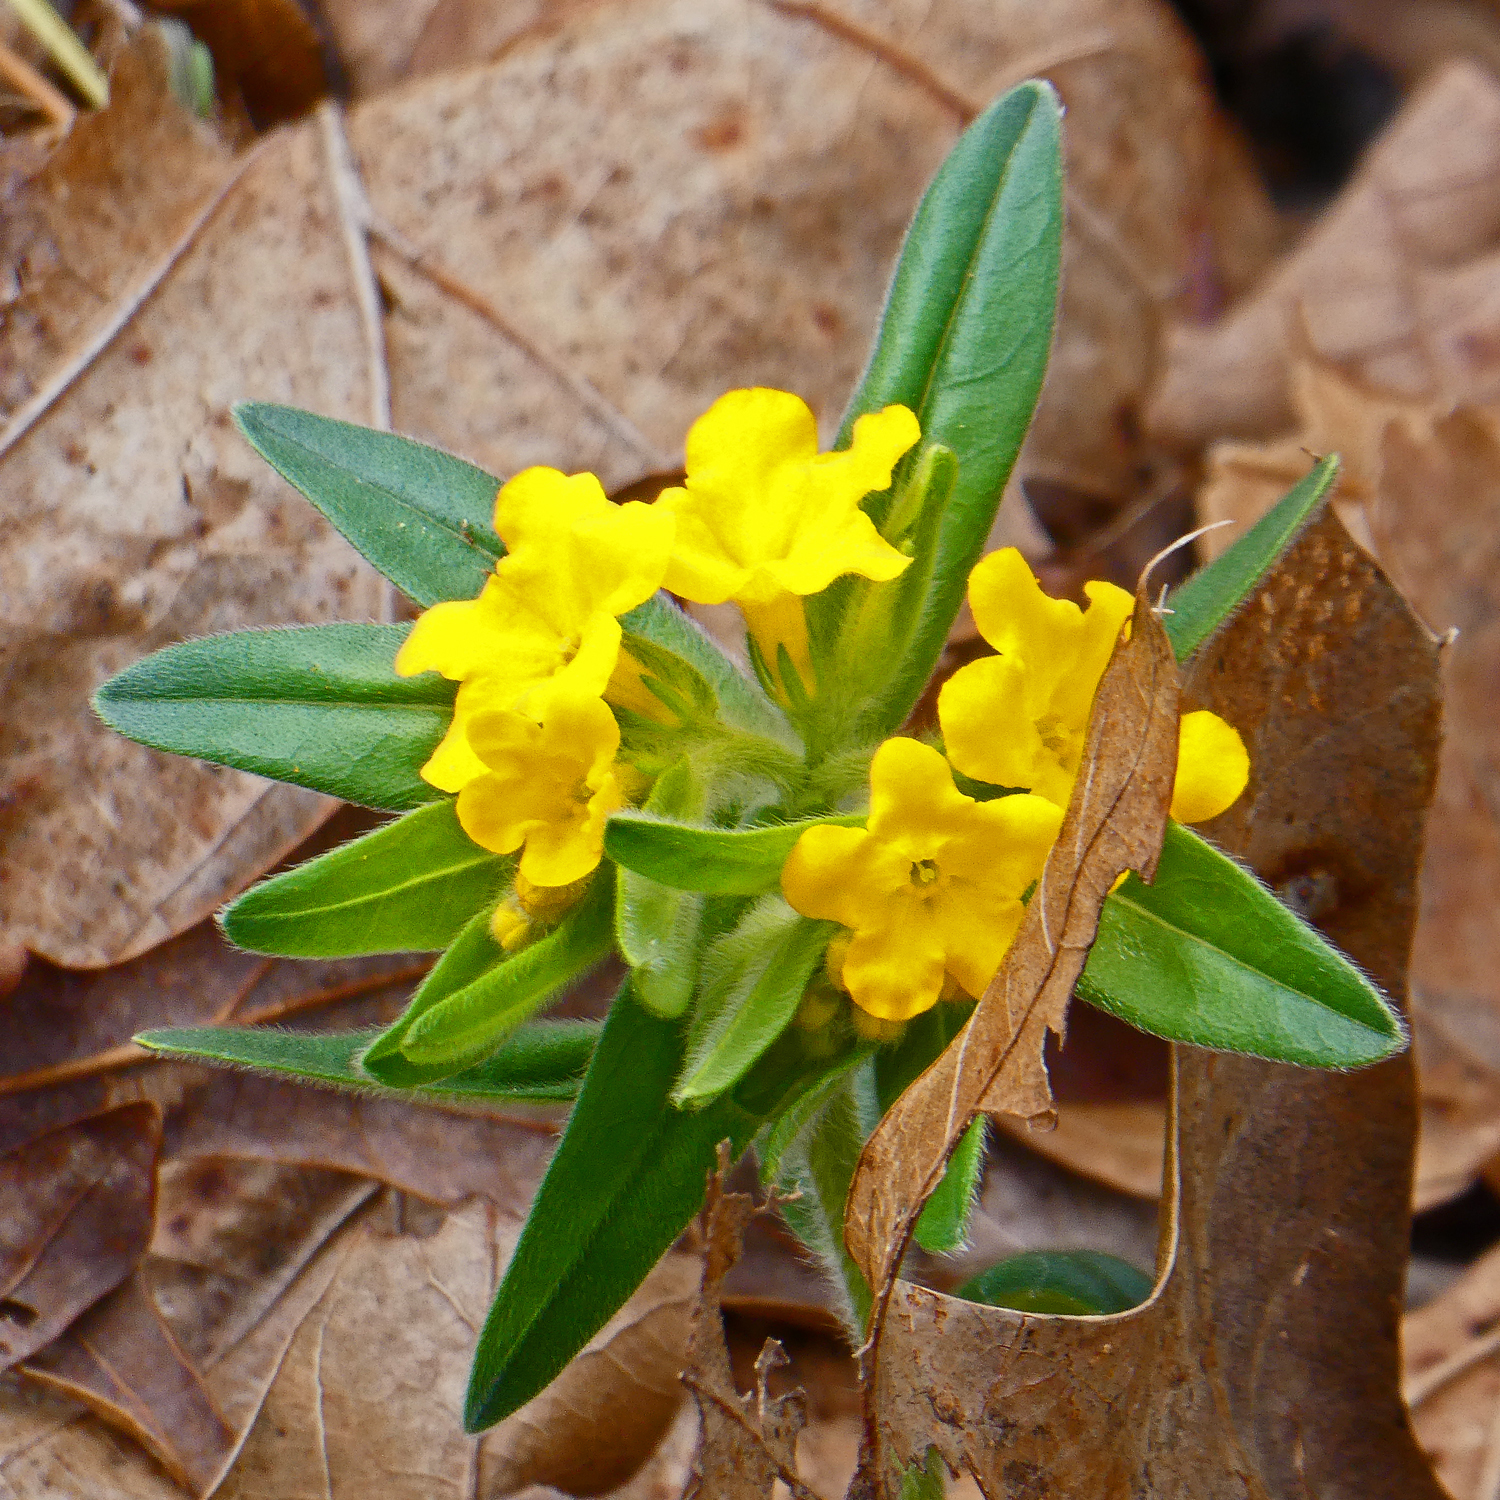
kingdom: Plantae
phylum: Tracheophyta
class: Magnoliopsida
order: Boraginales
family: Boraginaceae
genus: Lithospermum
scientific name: Lithospermum canescens
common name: Hoary puccoon
